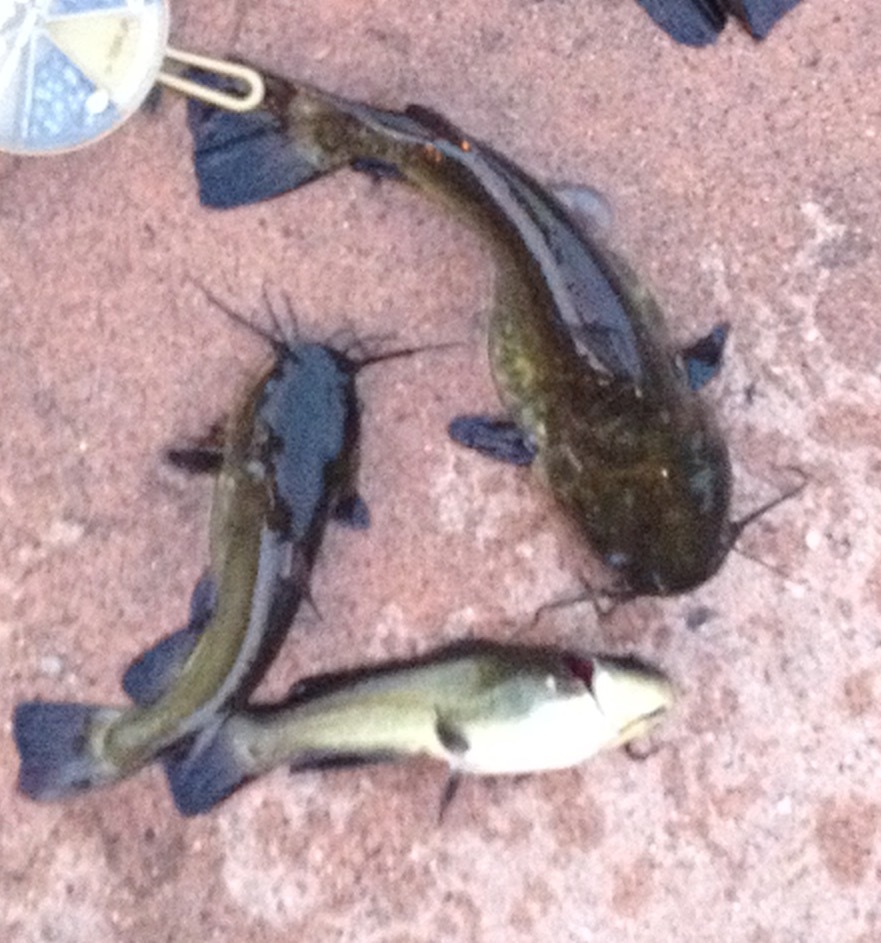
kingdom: Animalia
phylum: Chordata
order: Siluriformes
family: Ictaluridae
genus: Ameiurus
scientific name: Ameiurus melas
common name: Black bullhead
